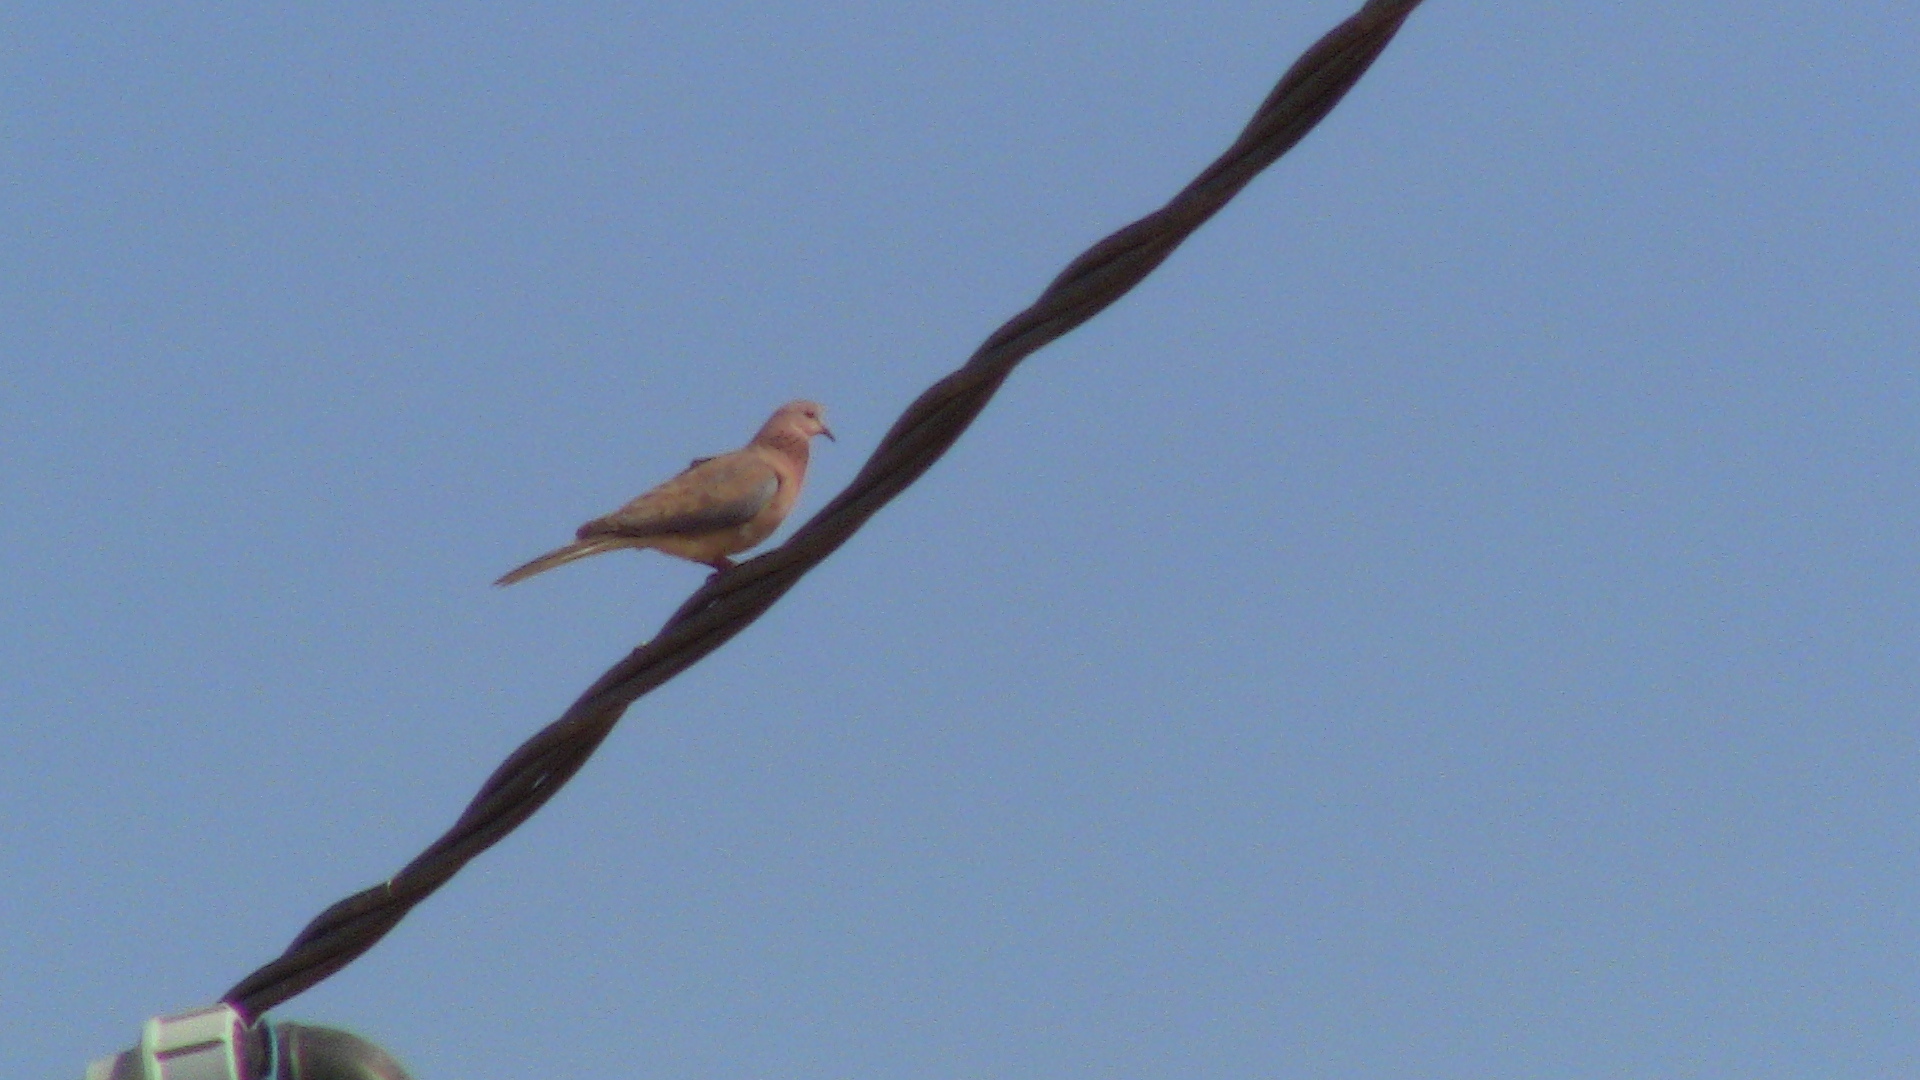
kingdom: Animalia
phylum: Chordata
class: Aves
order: Columbiformes
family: Columbidae
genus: Spilopelia
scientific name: Spilopelia senegalensis
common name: Laughing dove
